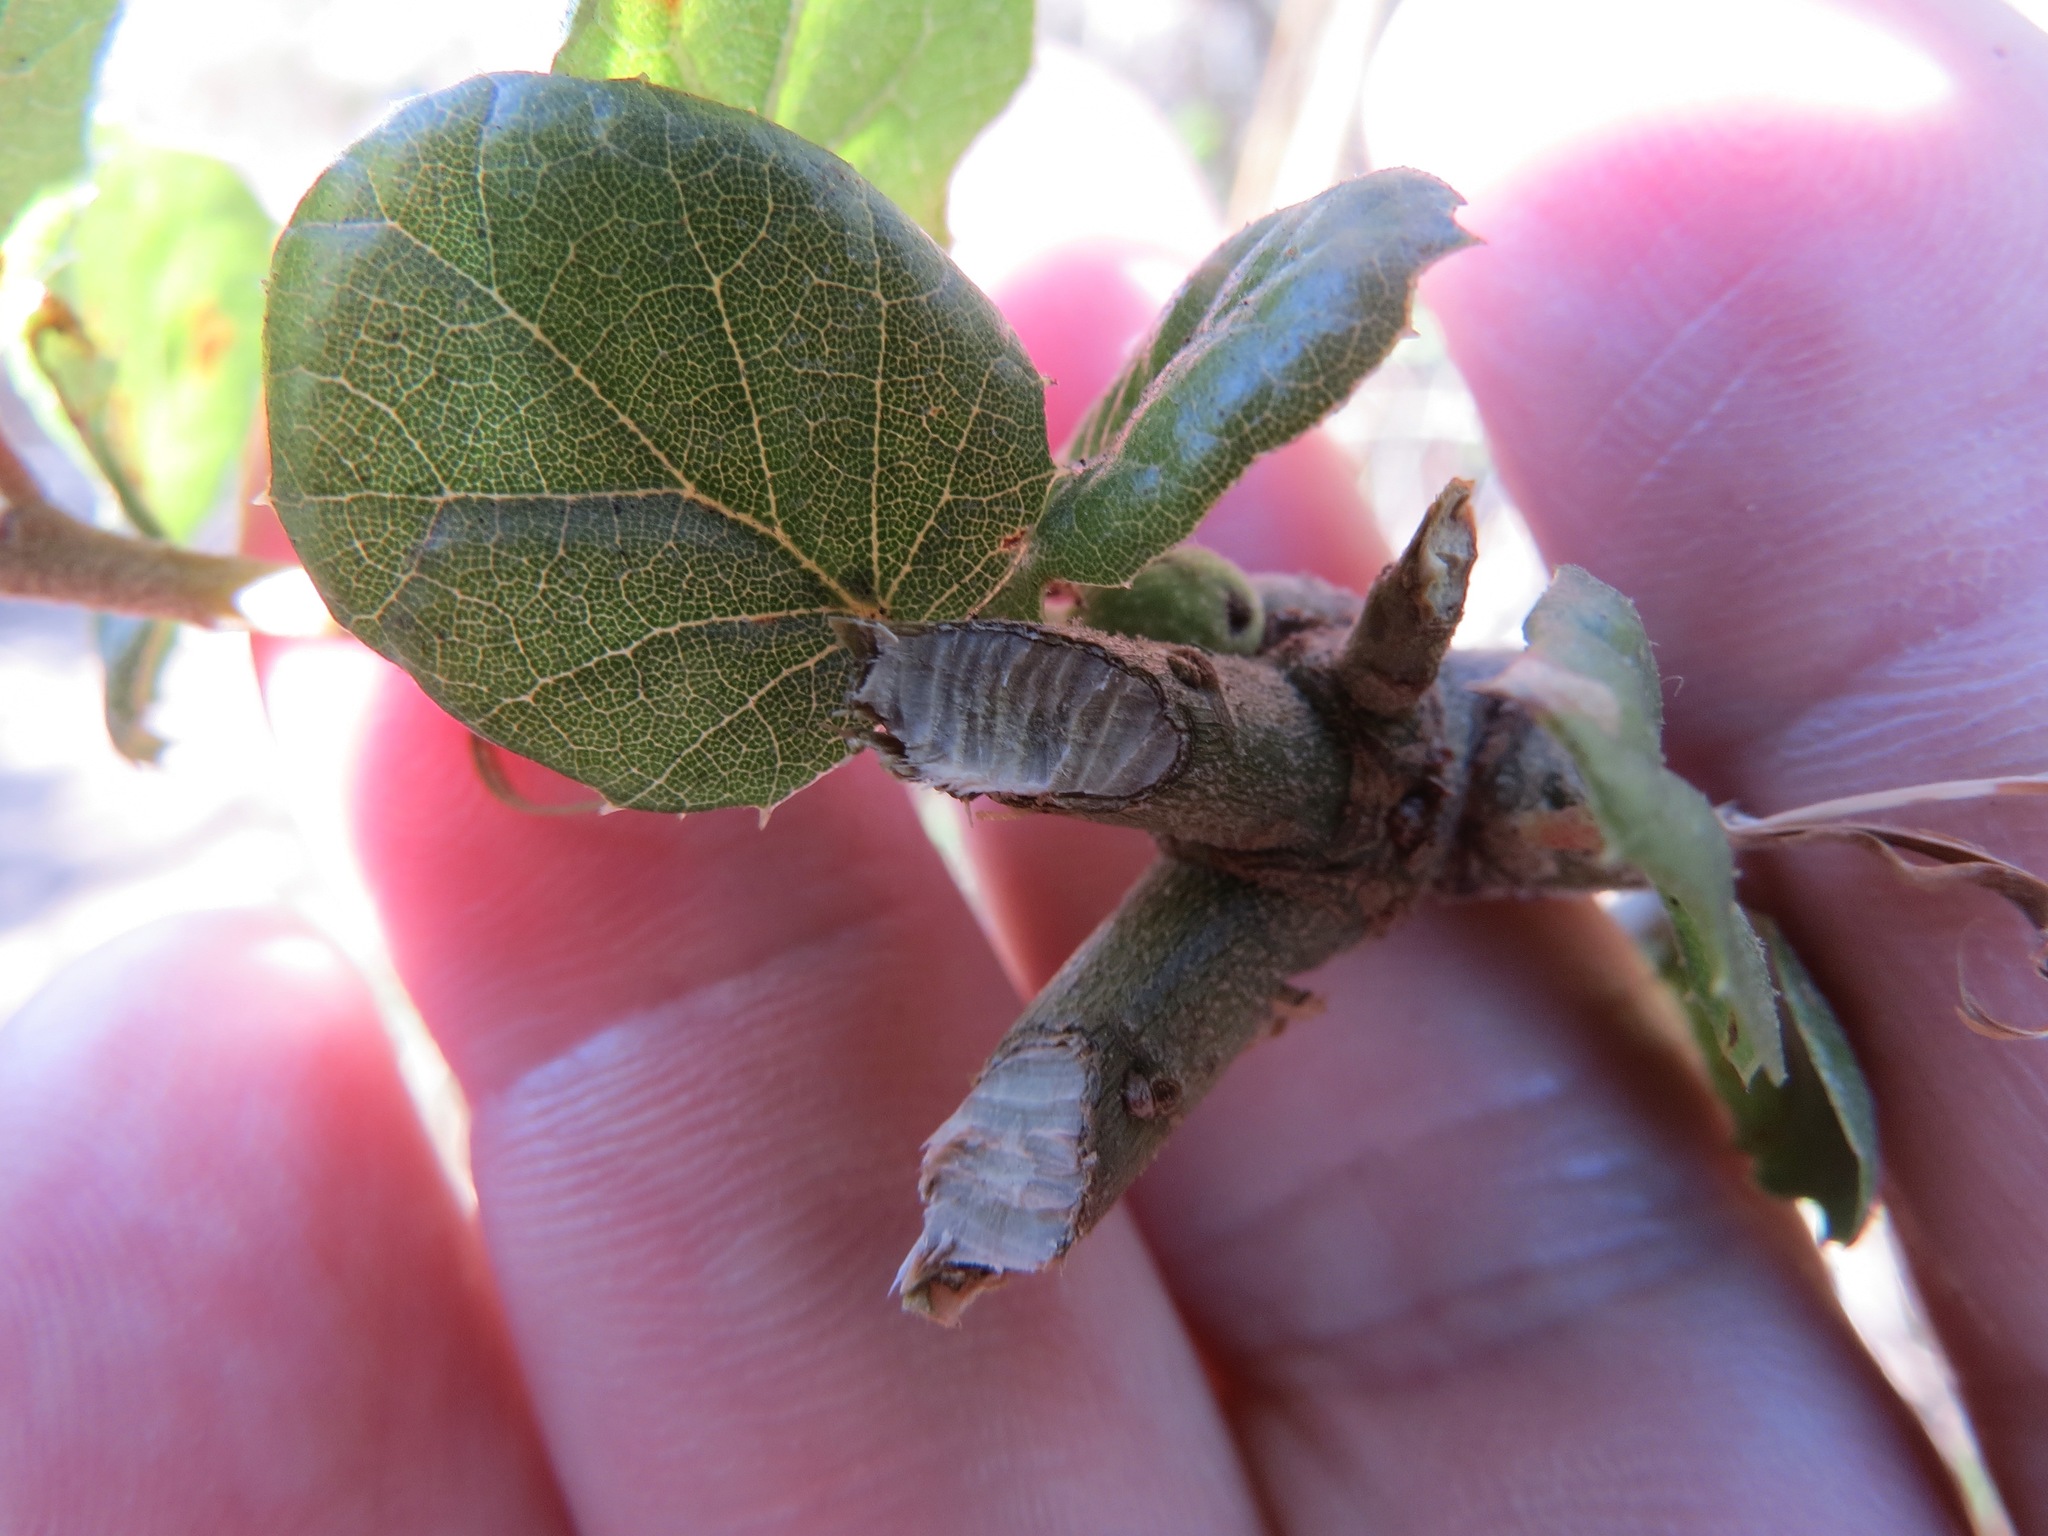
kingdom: Animalia
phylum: Chordata
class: Mammalia
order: Rodentia
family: Cricetidae
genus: Neotoma
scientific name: Neotoma fuscipes
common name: Dusky-footed woodrat
